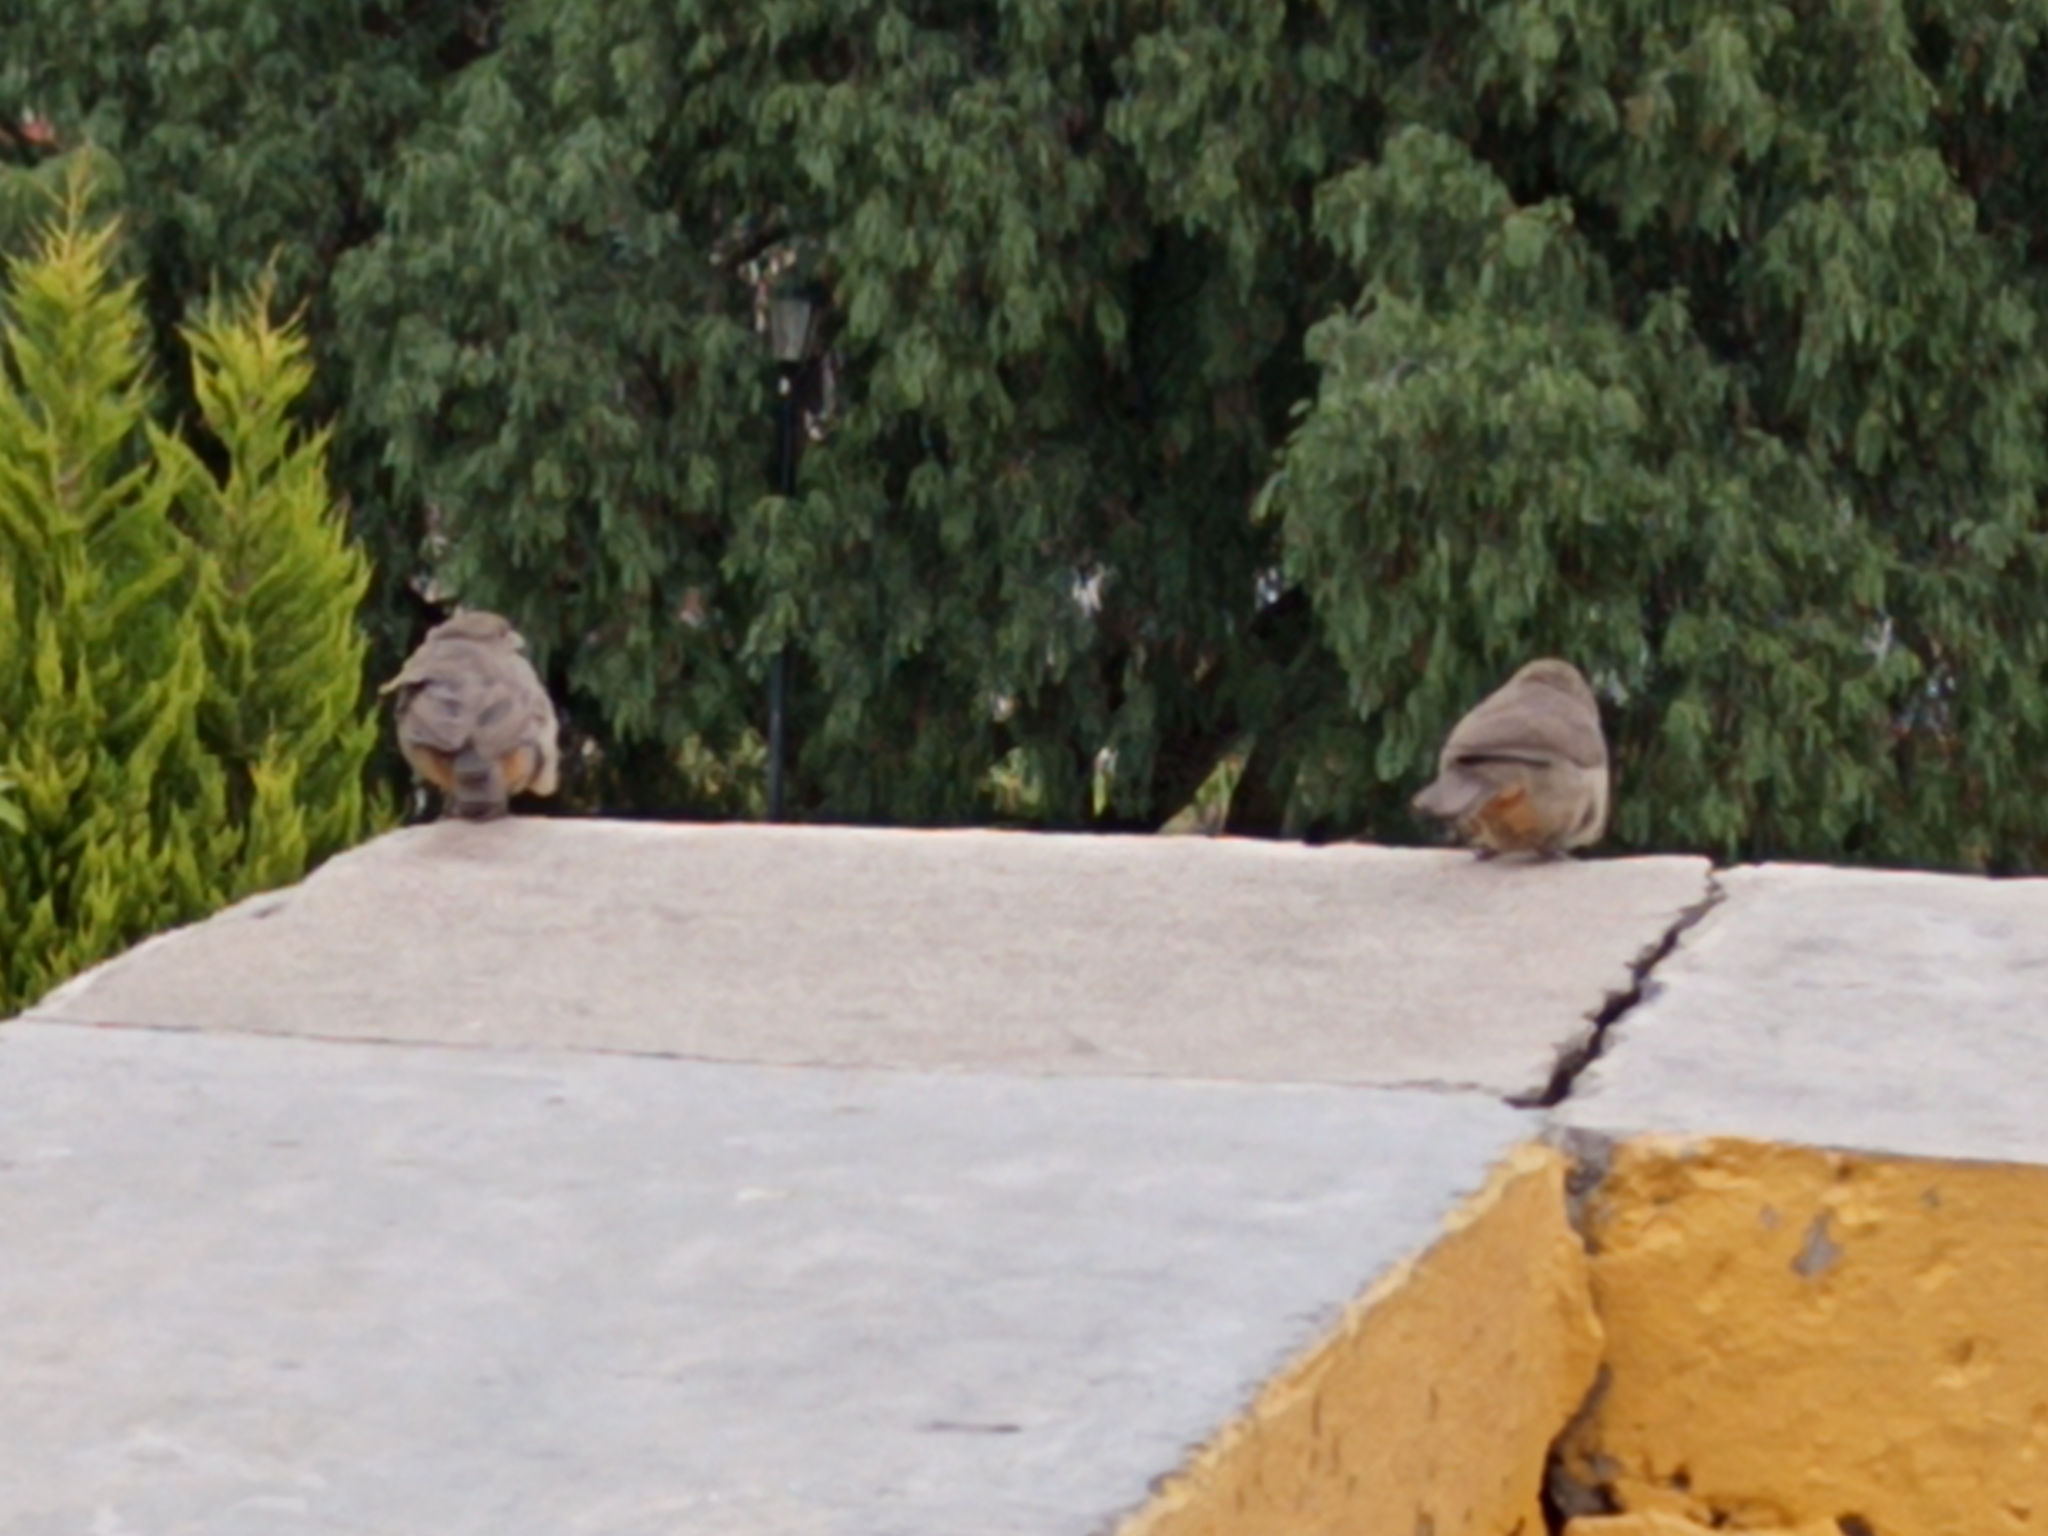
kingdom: Animalia
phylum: Chordata
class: Aves
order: Passeriformes
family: Passerellidae
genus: Melozone
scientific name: Melozone fusca
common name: Canyon towhee
